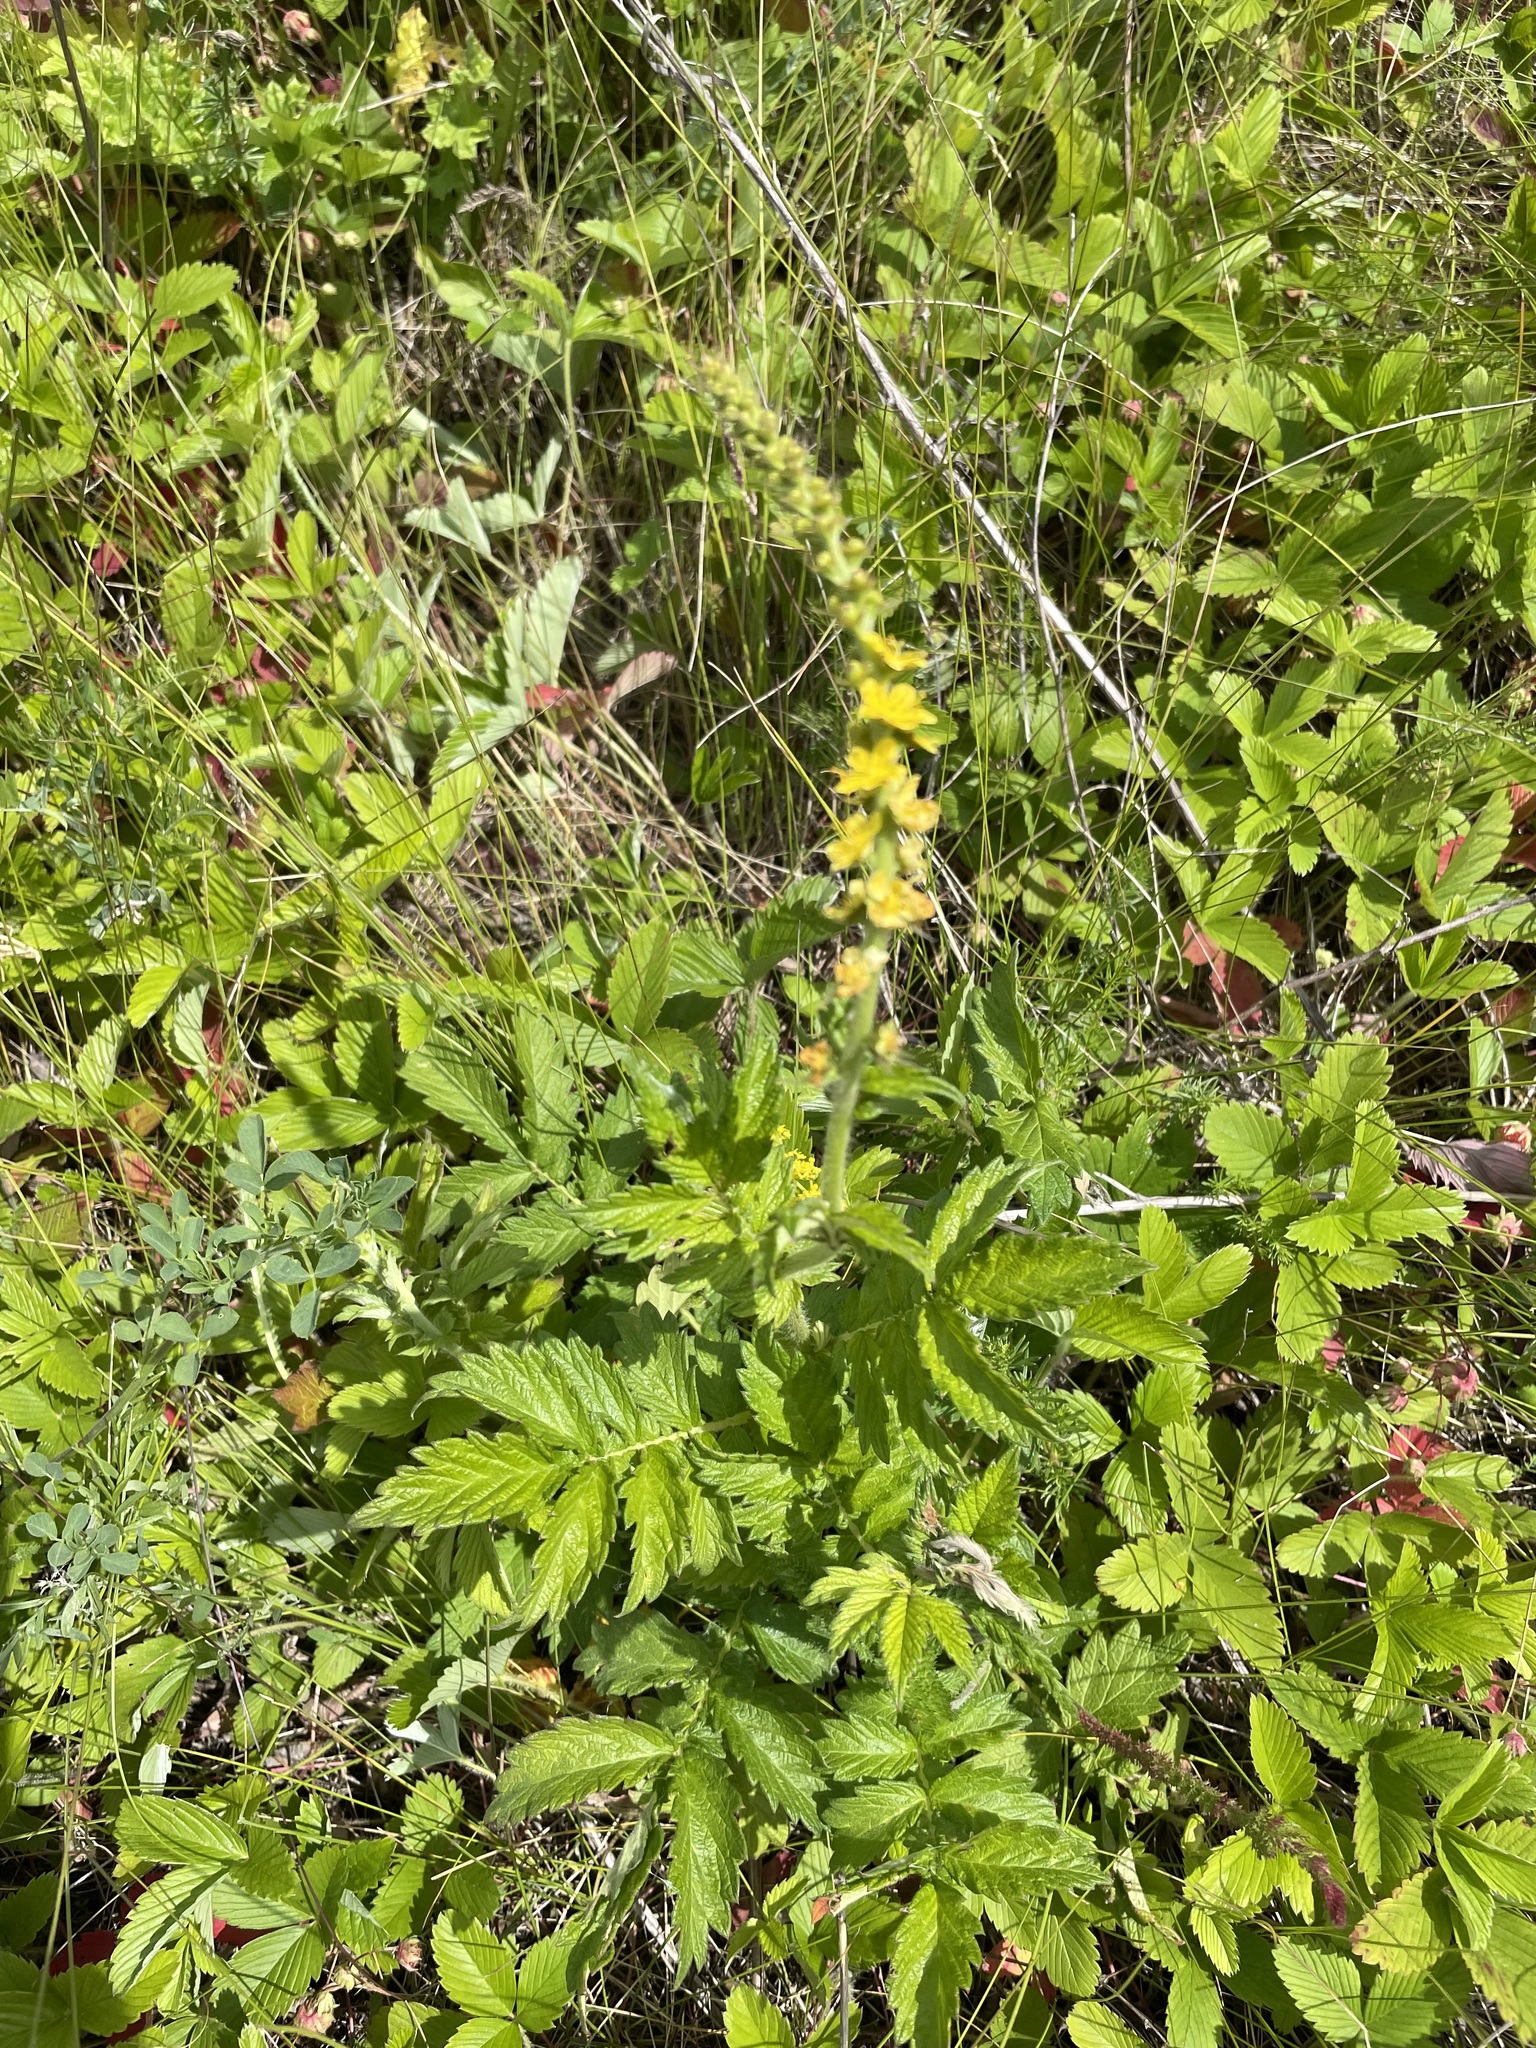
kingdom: Plantae
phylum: Tracheophyta
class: Magnoliopsida
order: Rosales
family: Rosaceae
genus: Agrimonia
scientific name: Agrimonia eupatoria
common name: Agrimony
